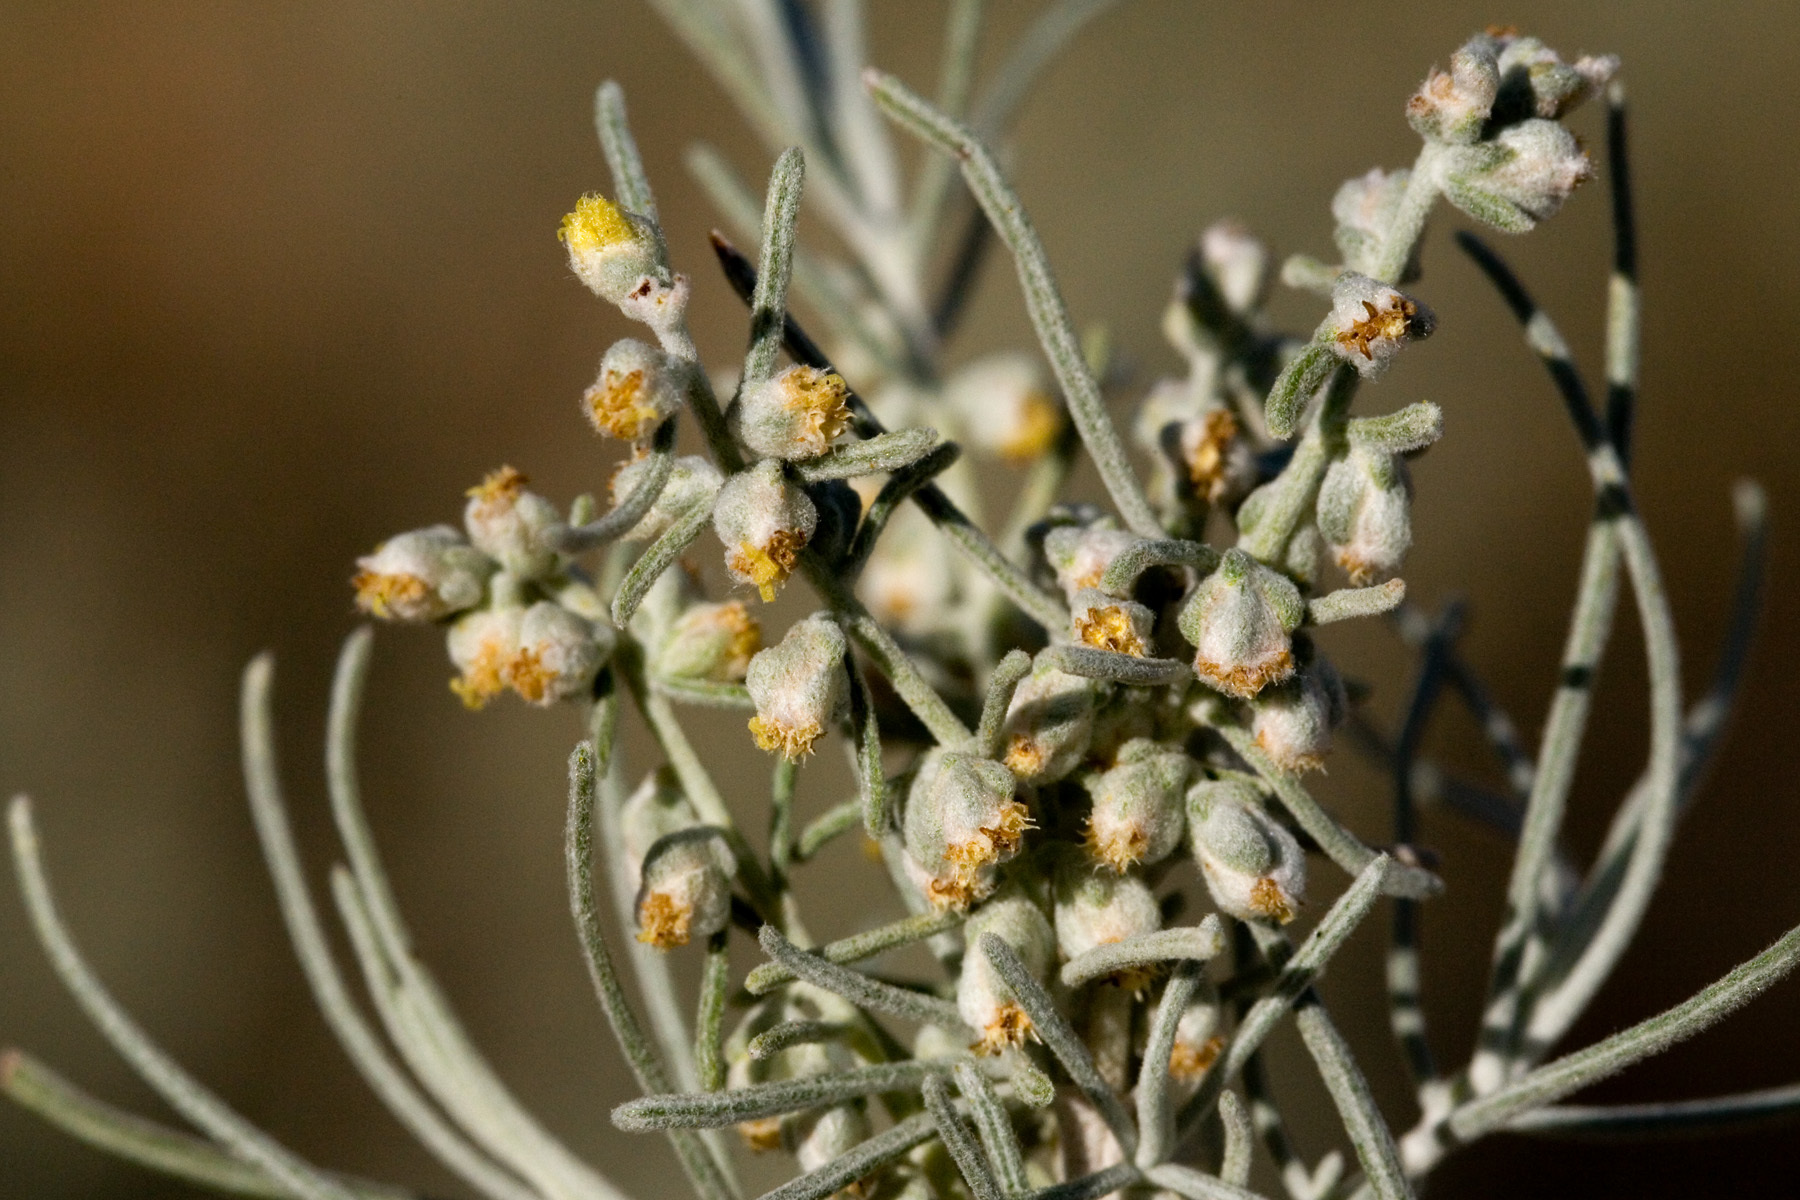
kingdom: Plantae
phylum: Tracheophyta
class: Magnoliopsida
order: Asterales
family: Asteraceae
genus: Artemisia
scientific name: Artemisia filifolia
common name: Sand-sage
